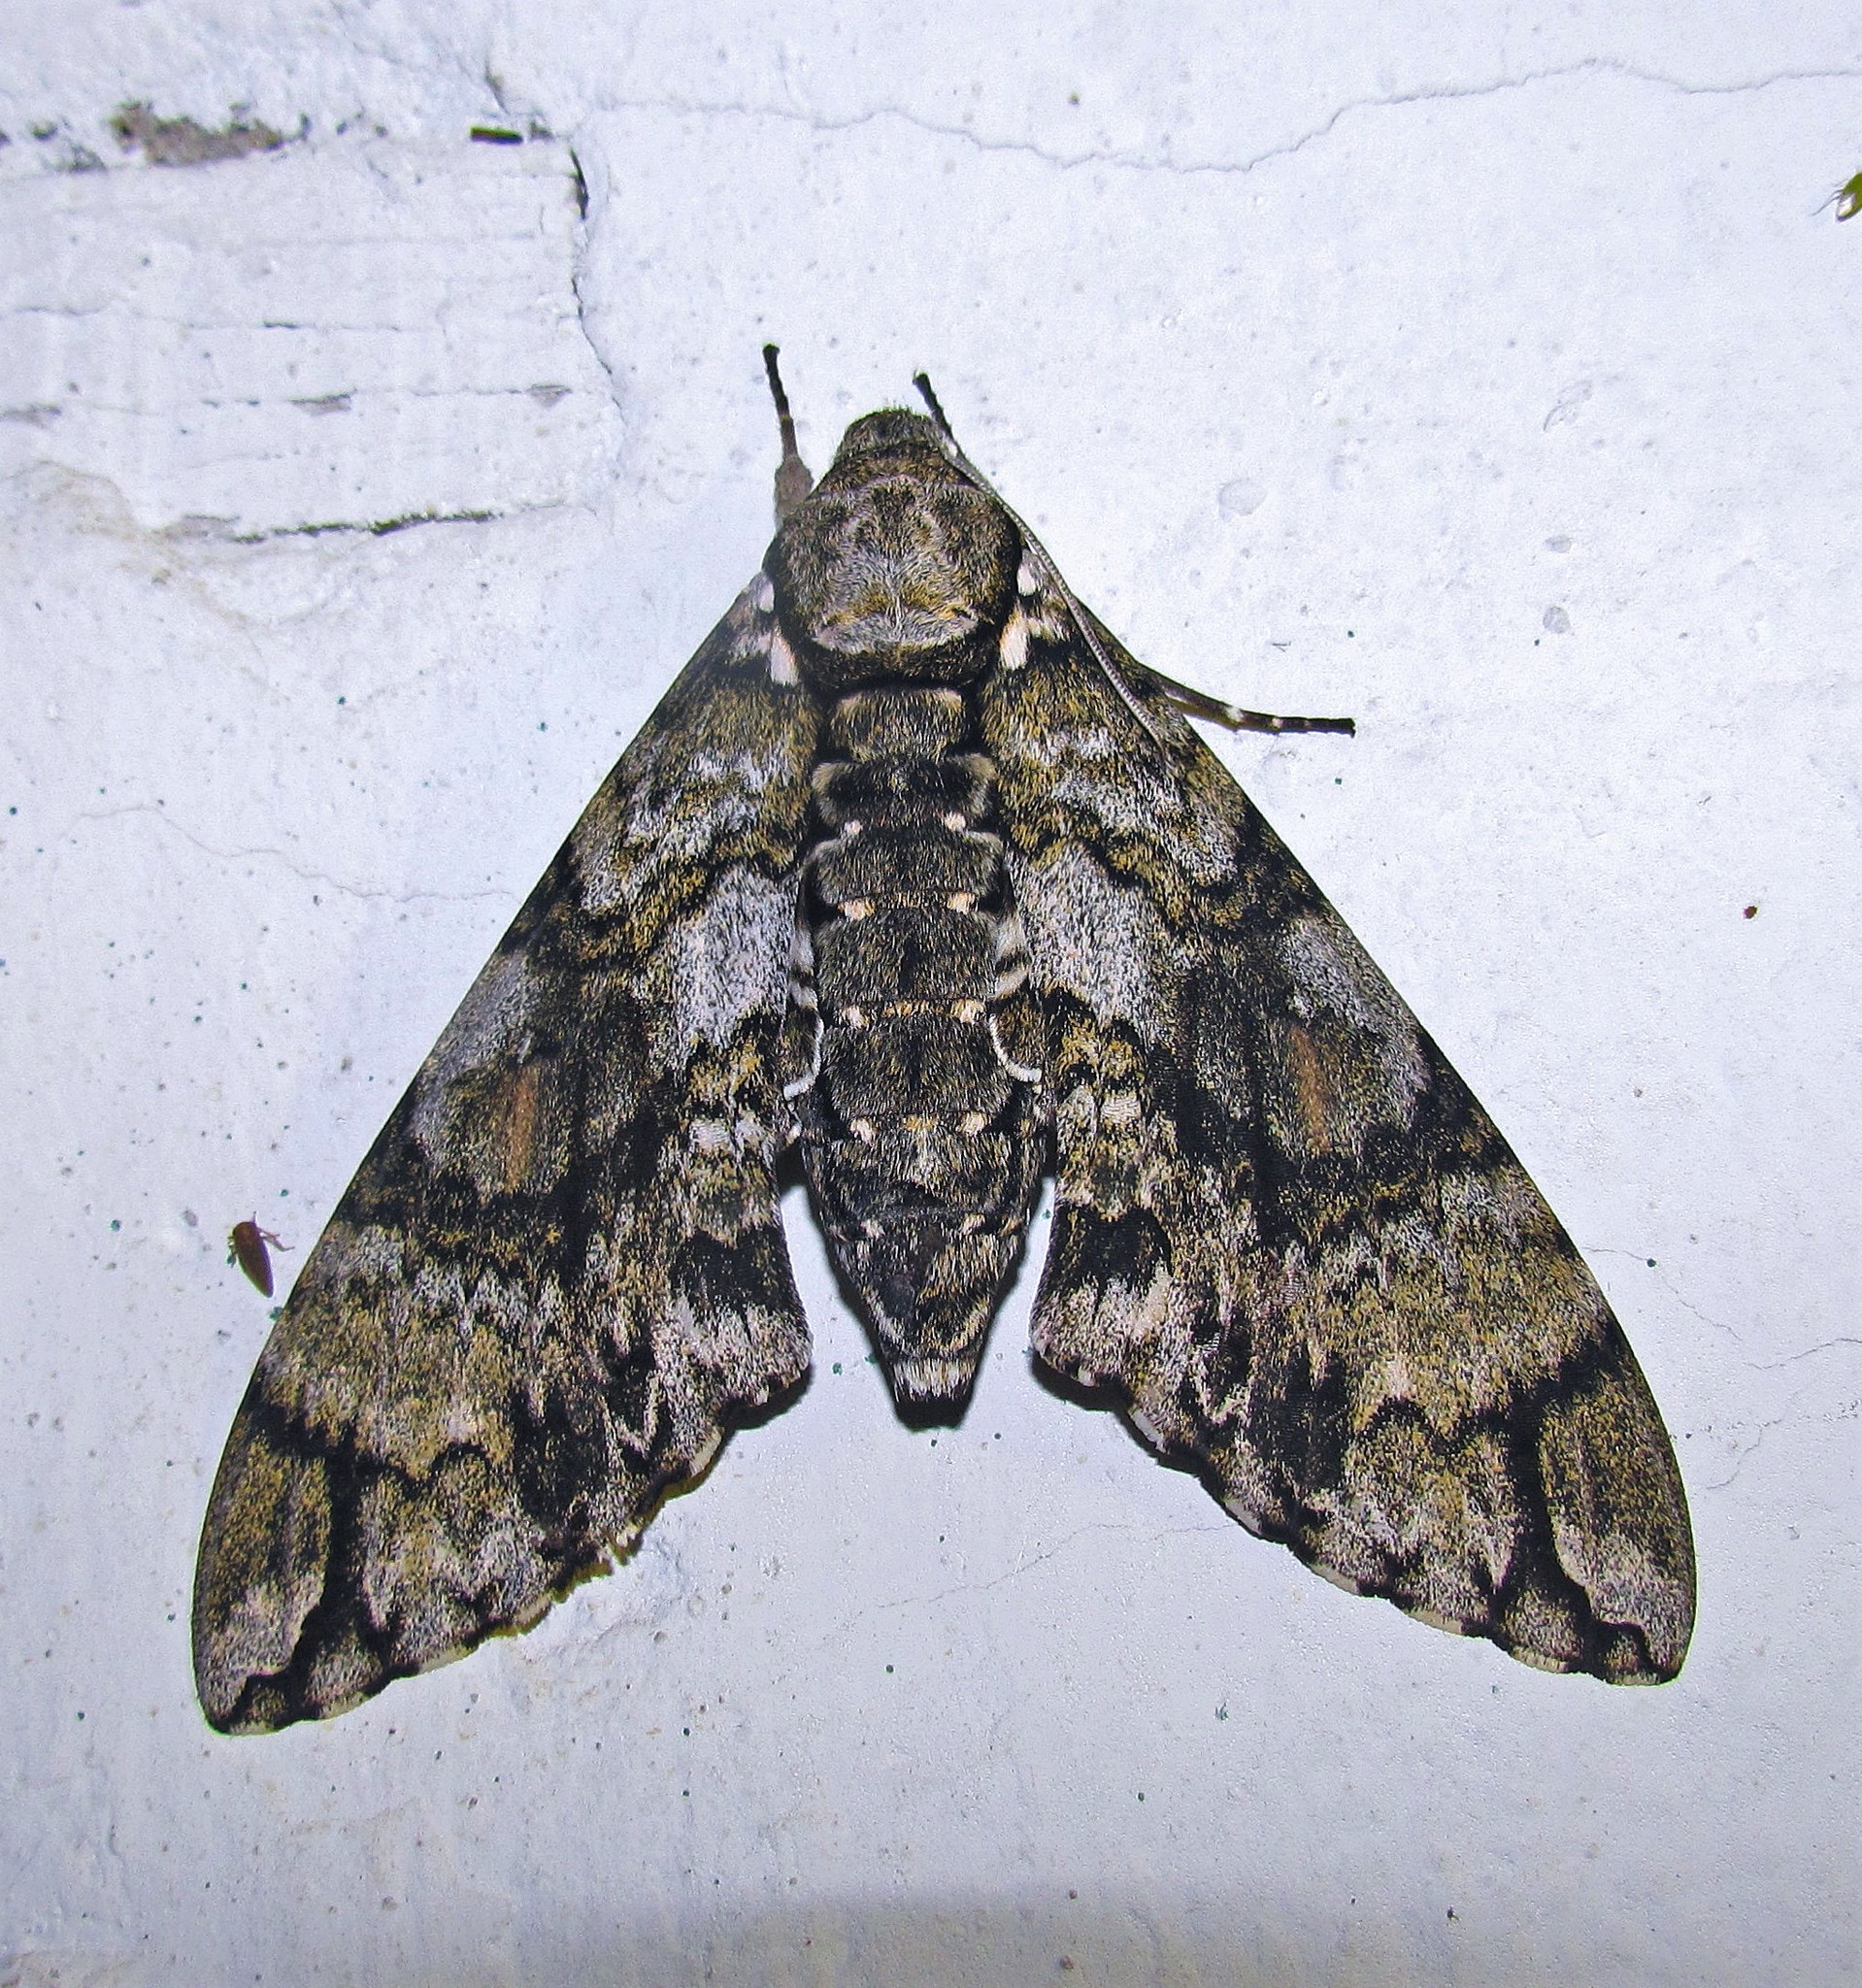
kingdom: Animalia
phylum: Arthropoda
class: Insecta
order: Lepidoptera
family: Sphingidae
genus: Manduca
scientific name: Manduca florestan
